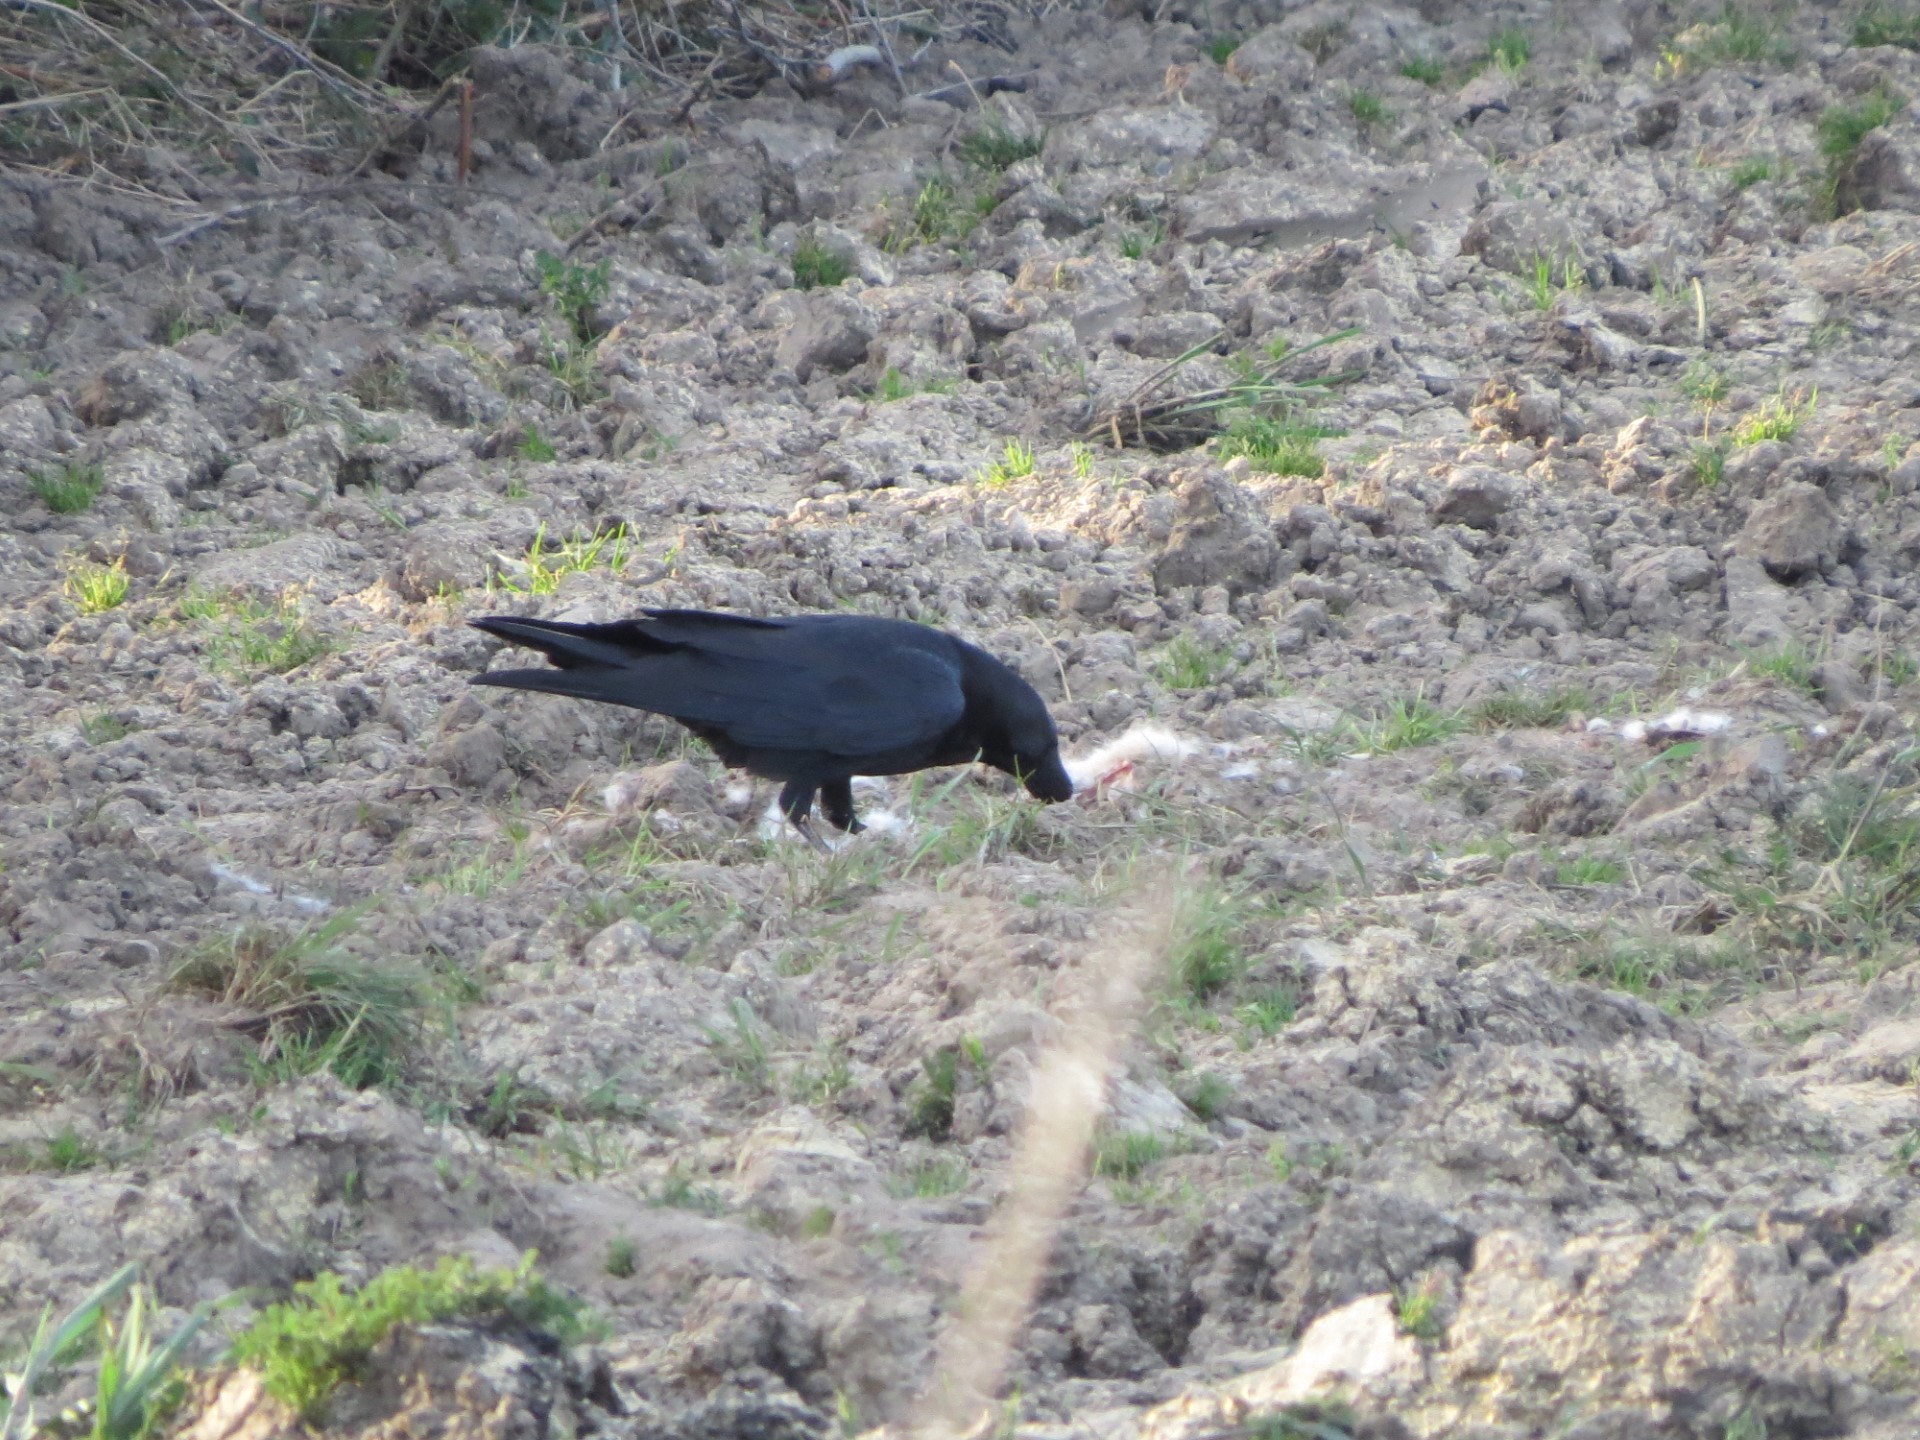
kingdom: Animalia
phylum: Chordata
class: Aves
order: Passeriformes
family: Corvidae
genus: Corvus
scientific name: Corvus corax
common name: Common raven
